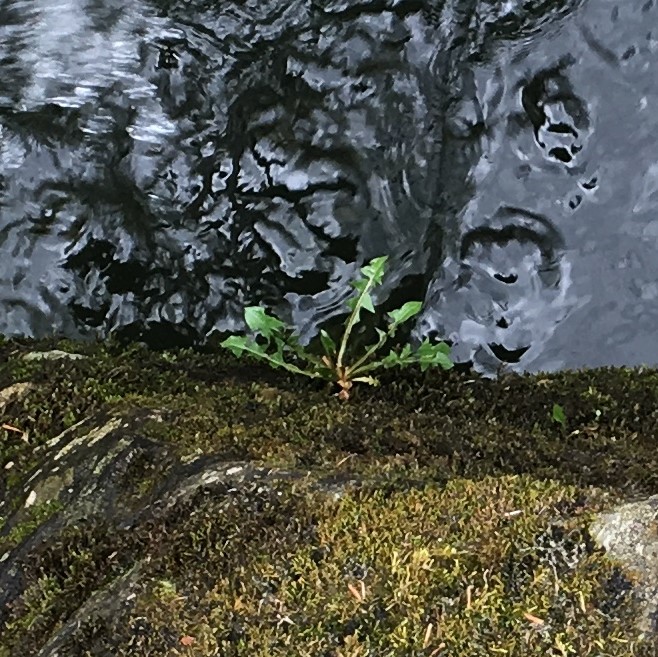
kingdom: Plantae
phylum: Tracheophyta
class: Magnoliopsida
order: Asterales
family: Asteraceae
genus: Taraxacum
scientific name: Taraxacum officinale
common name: Common dandelion
